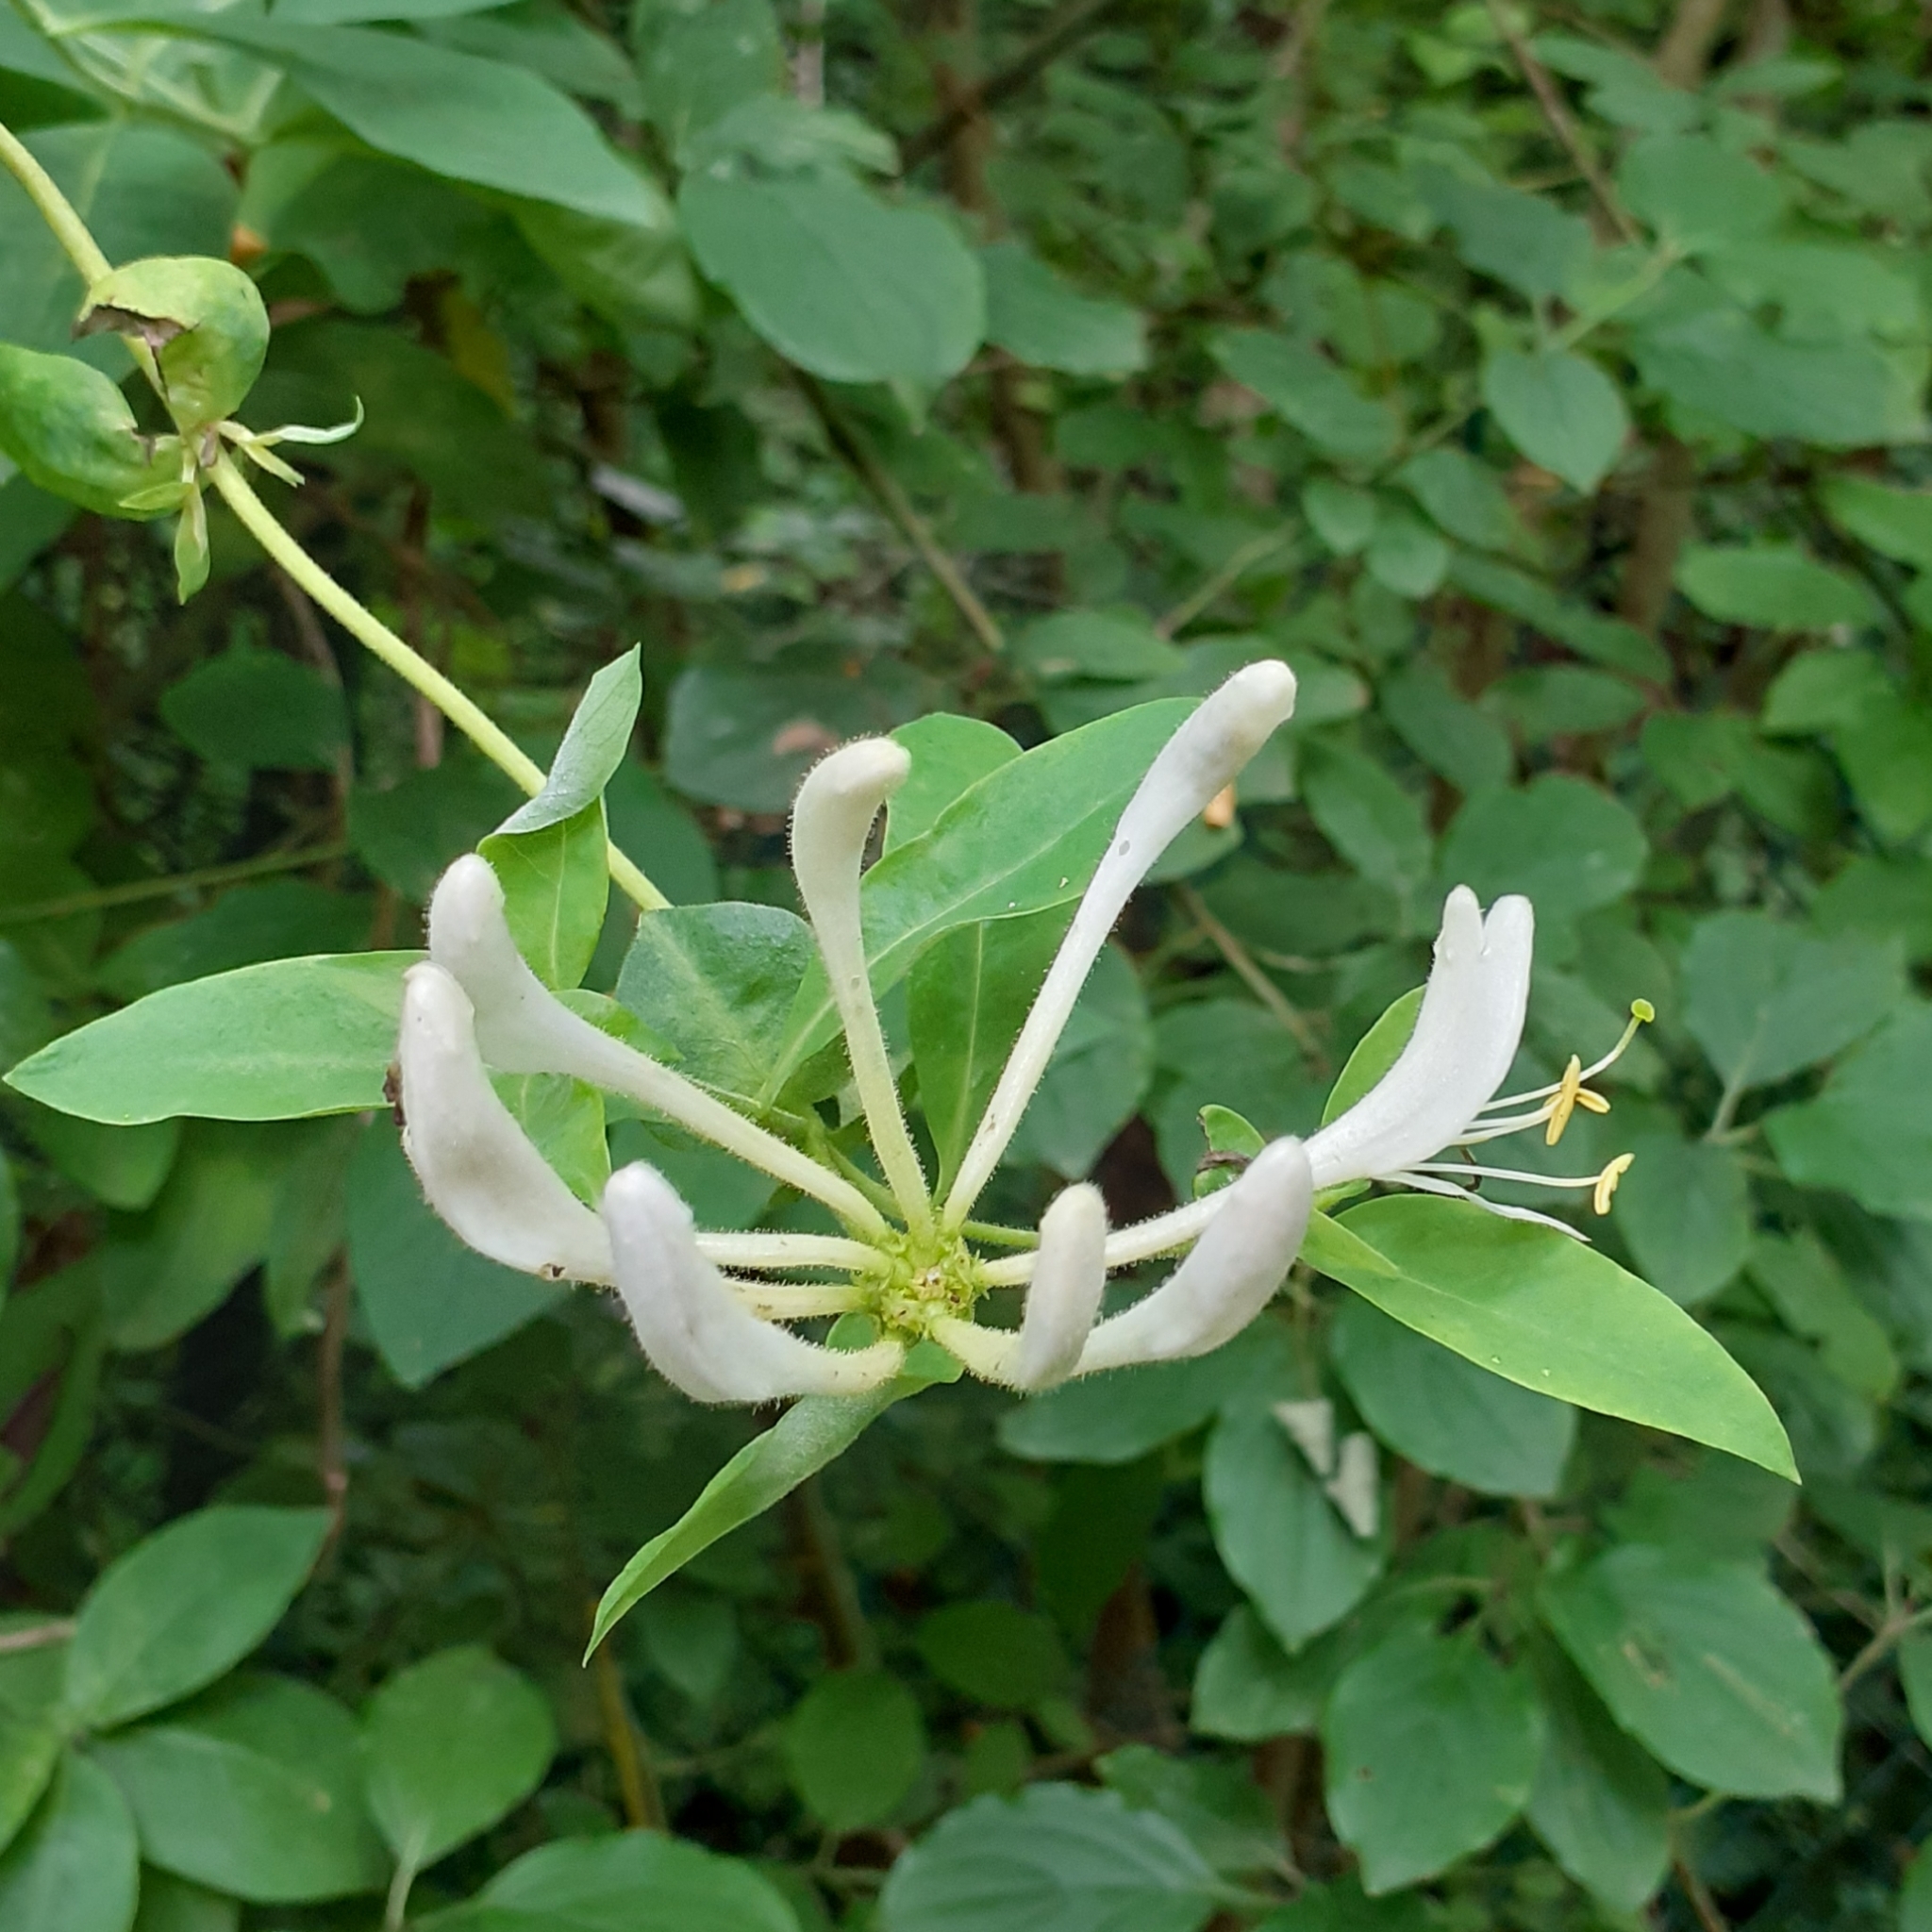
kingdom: Plantae
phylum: Tracheophyta
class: Magnoliopsida
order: Dipsacales
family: Caprifoliaceae
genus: Lonicera
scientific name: Lonicera periclymenum
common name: European honeysuckle
